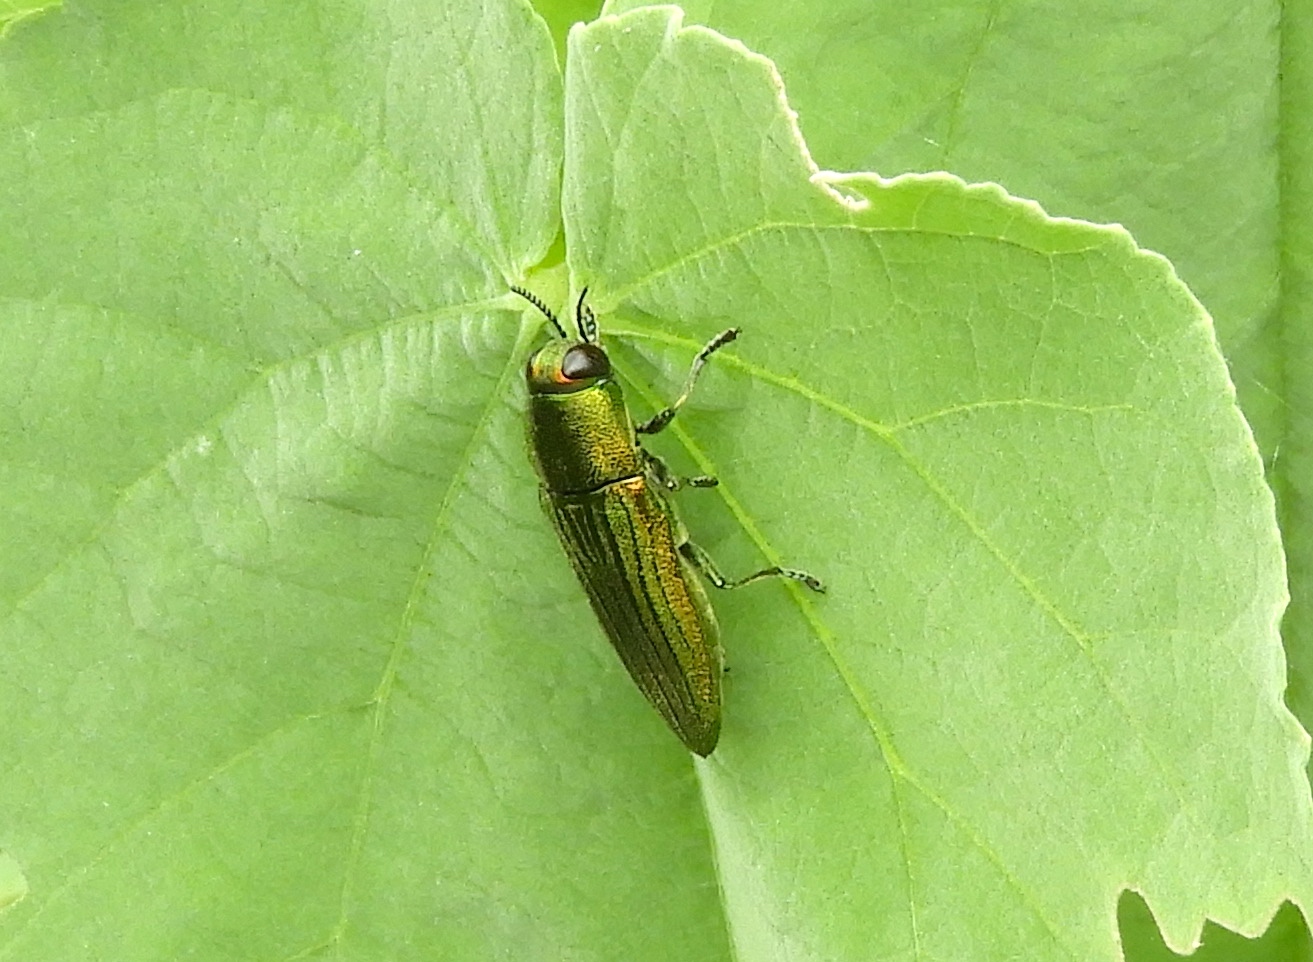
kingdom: Animalia
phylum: Arthropoda
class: Insecta
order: Coleoptera
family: Buprestidae
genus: Agaeocera
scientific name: Agaeocera scintillans
